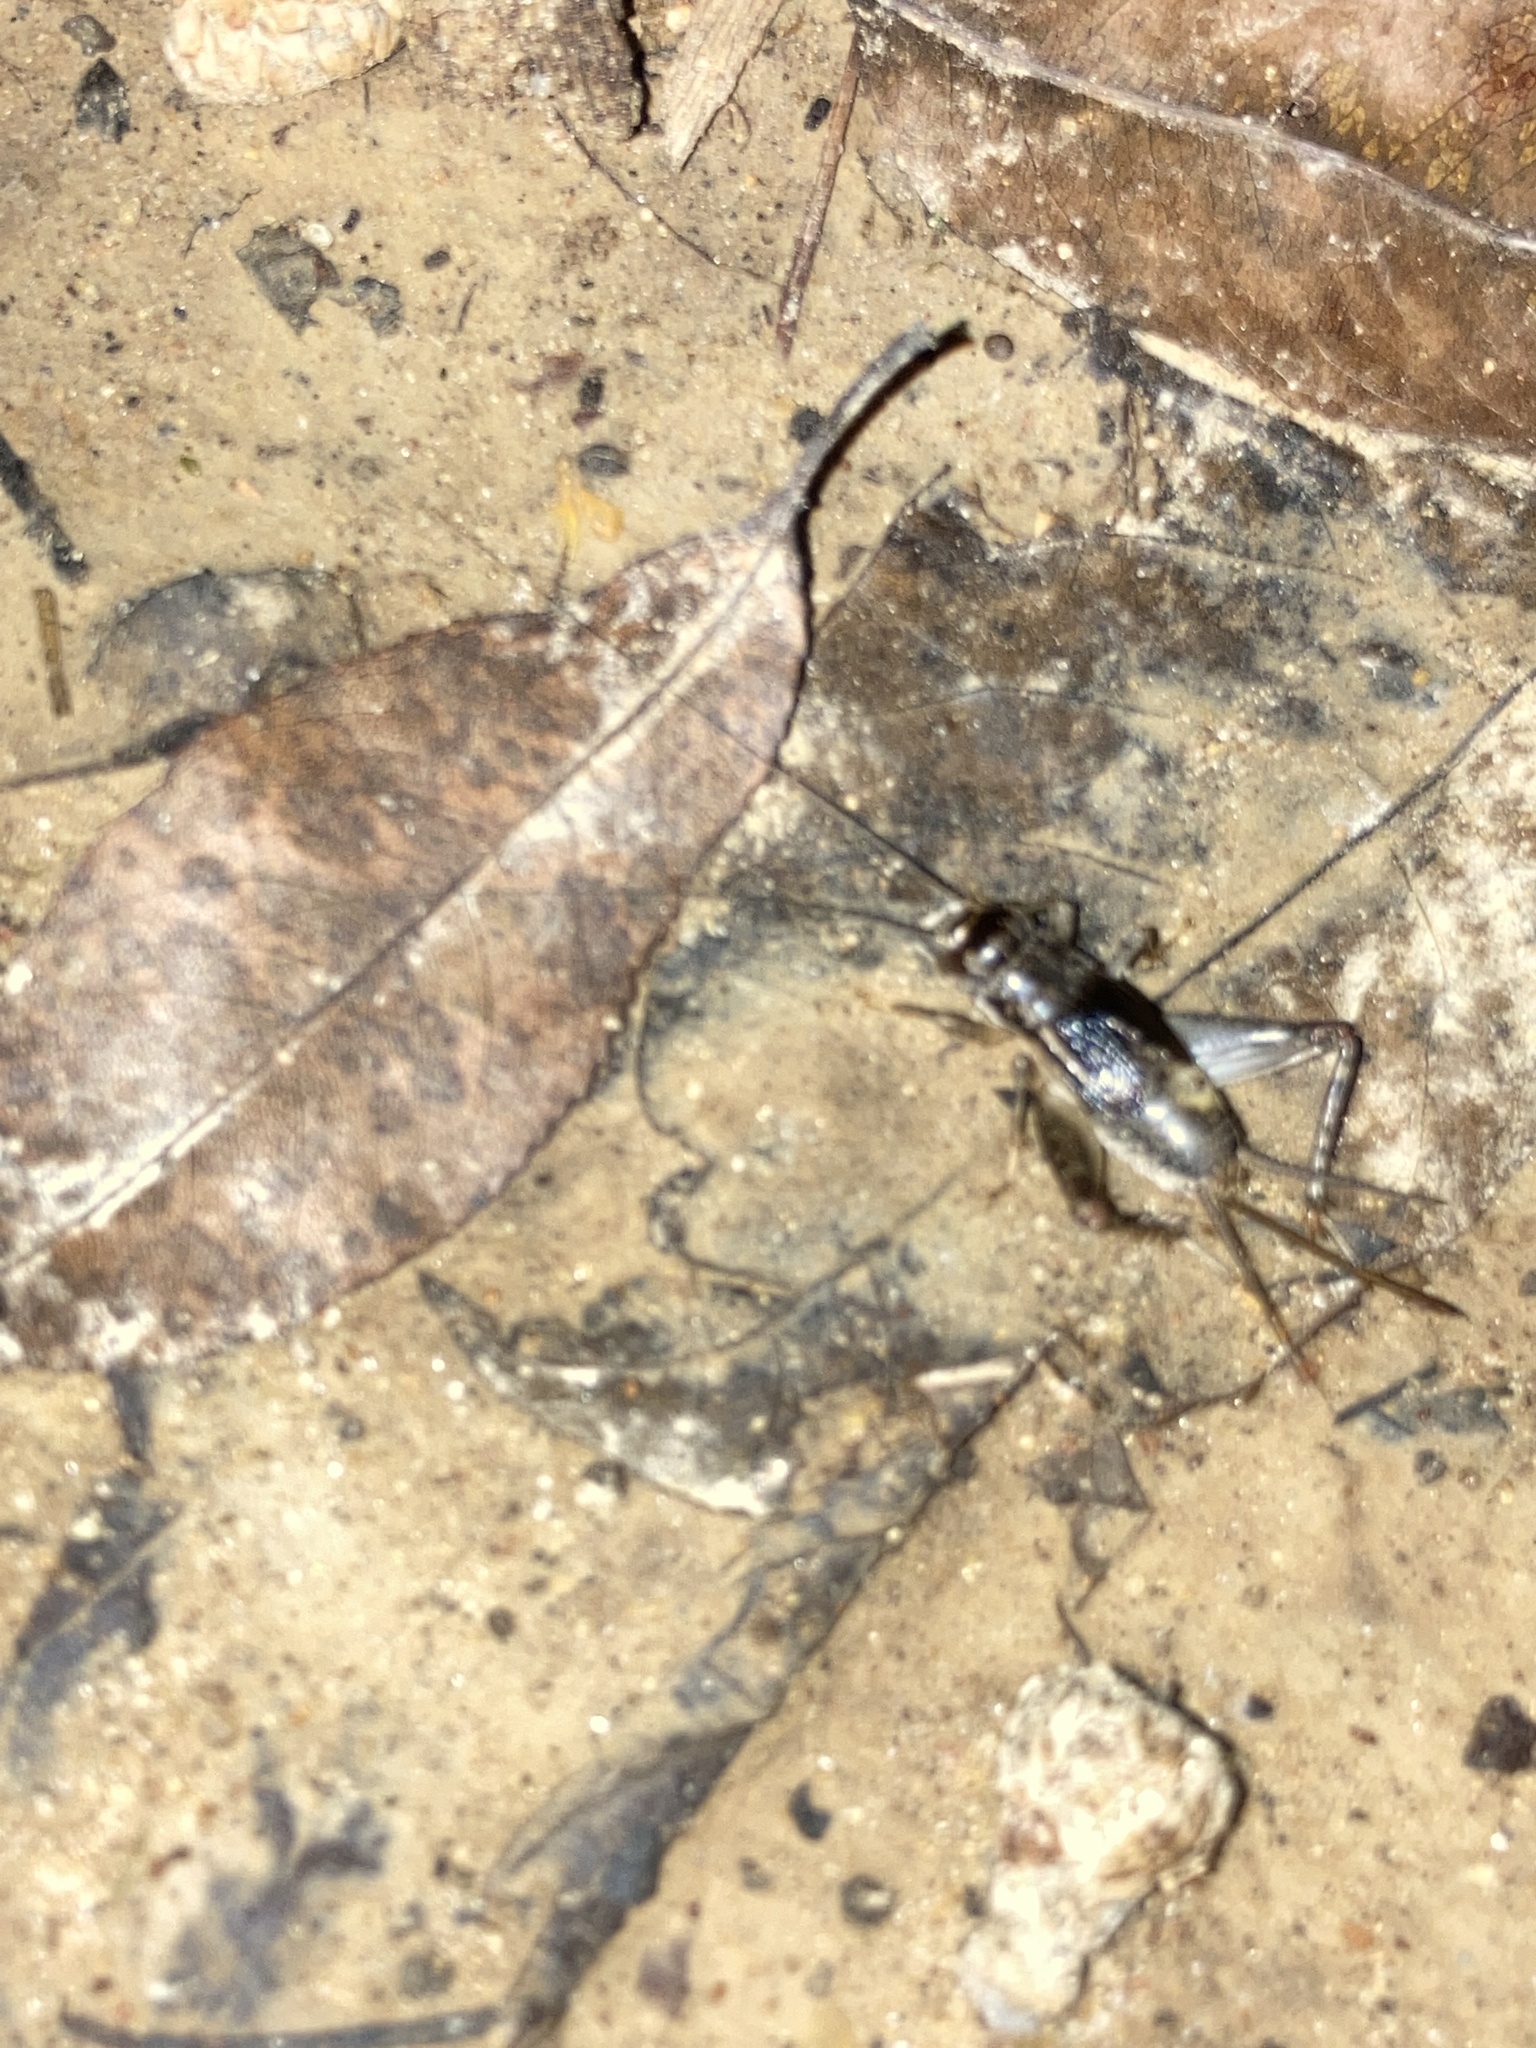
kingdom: Animalia
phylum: Arthropoda
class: Insecta
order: Orthoptera
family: Gryllidae
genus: Velarifictorus
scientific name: Velarifictorus micado
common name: Japanese burrowing cricket
